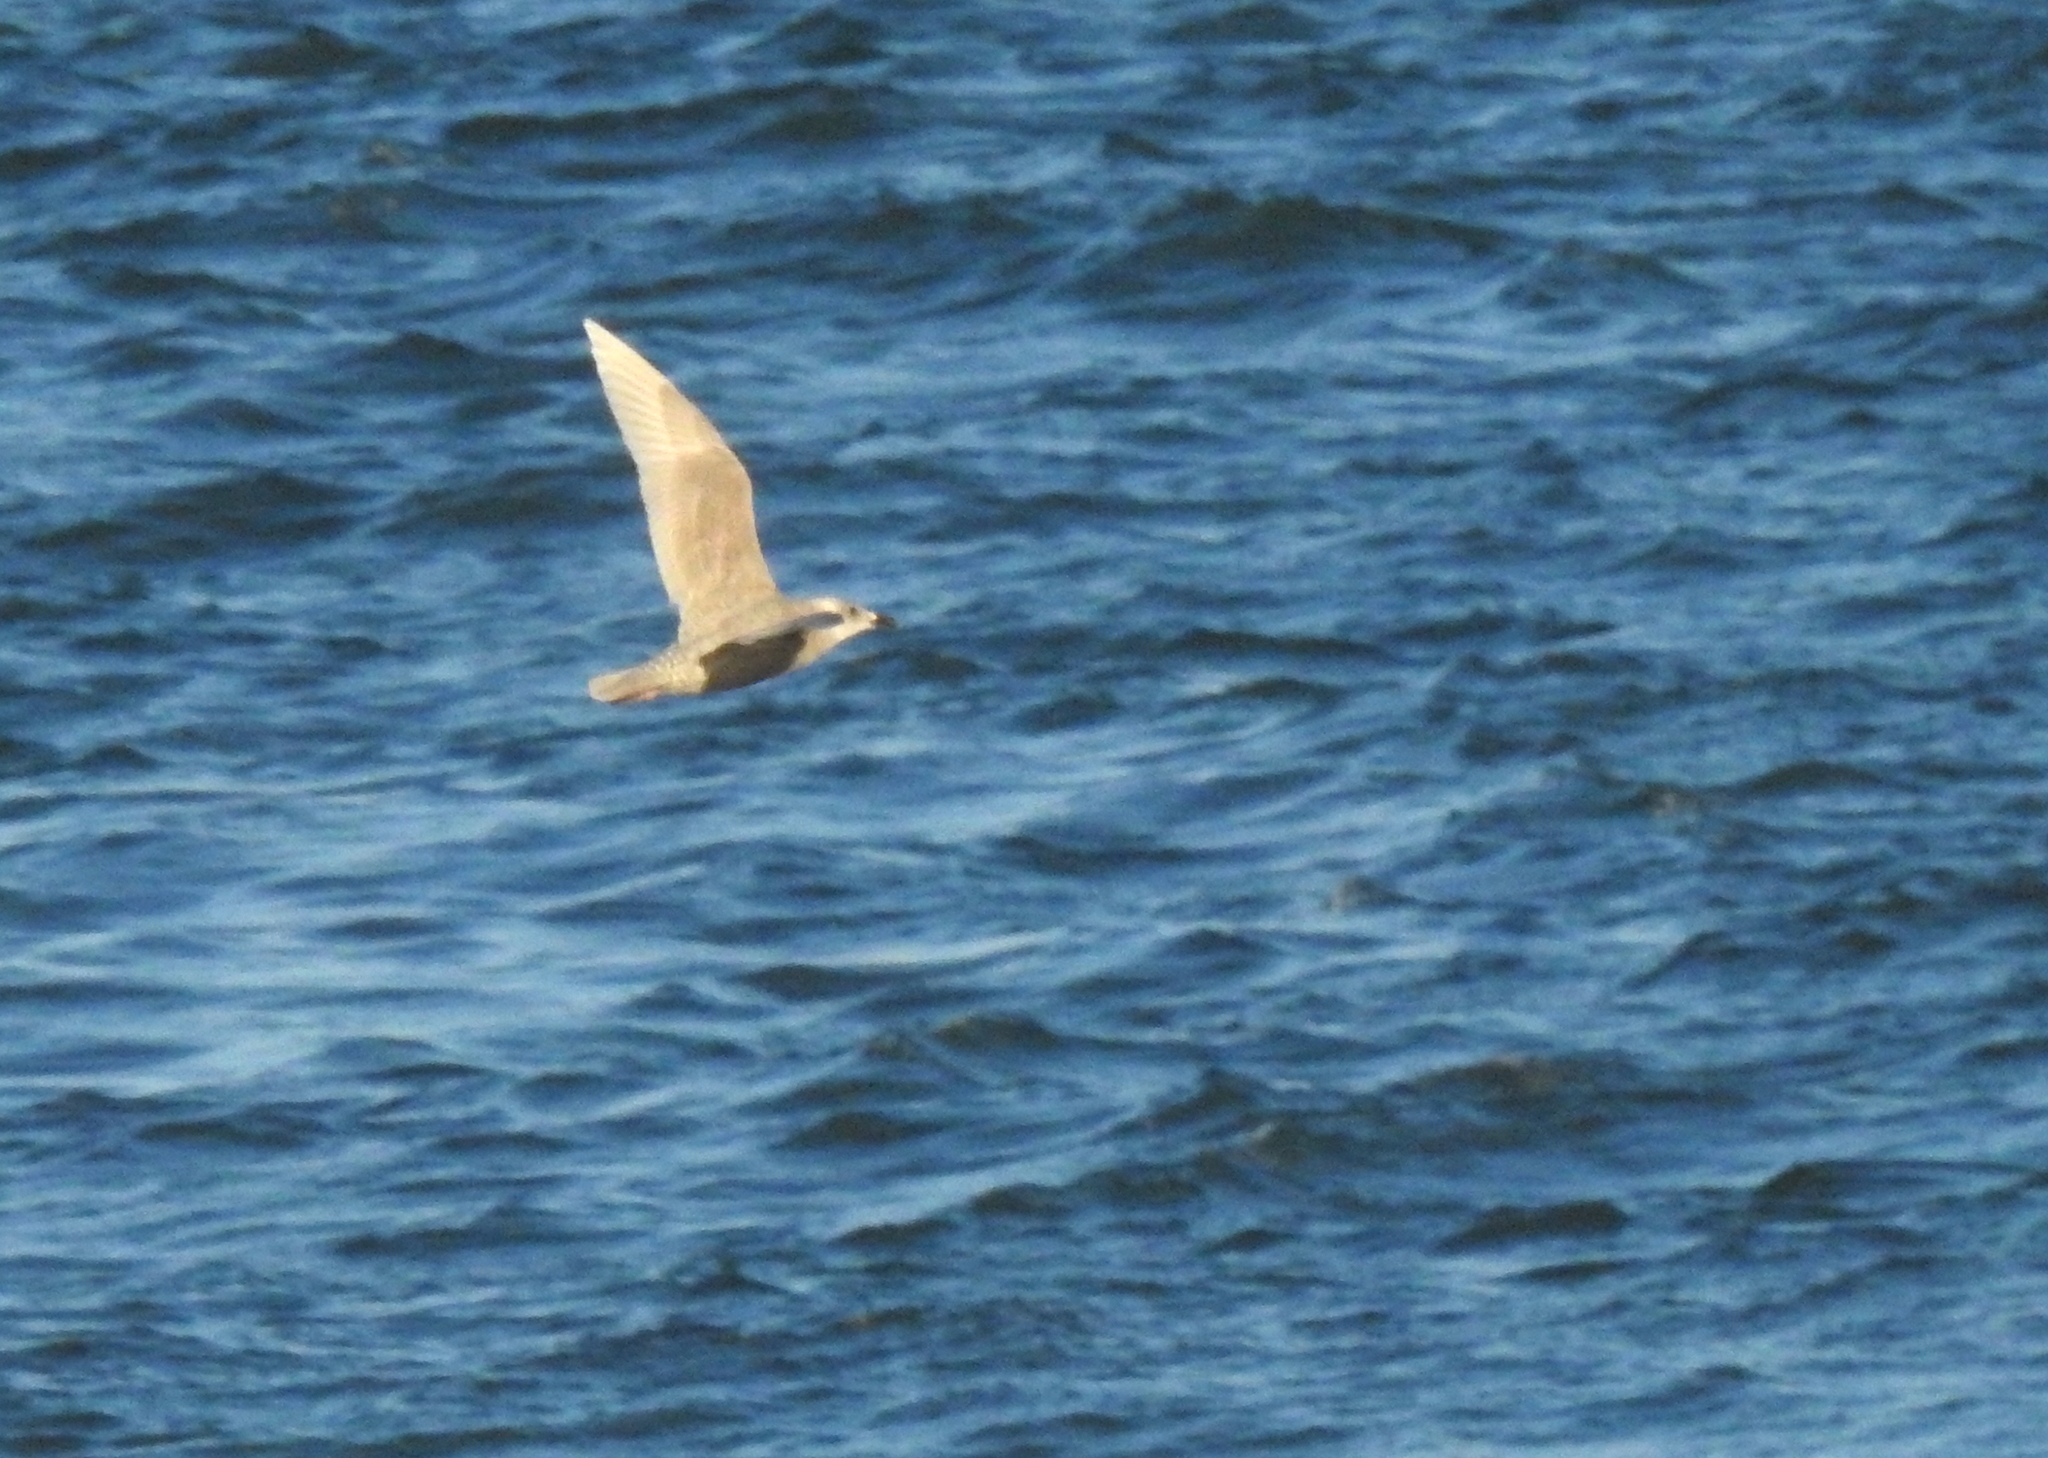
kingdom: Animalia
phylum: Chordata
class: Aves
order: Charadriiformes
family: Laridae
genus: Larus
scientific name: Larus glaucescens
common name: Glaucous-winged gull
